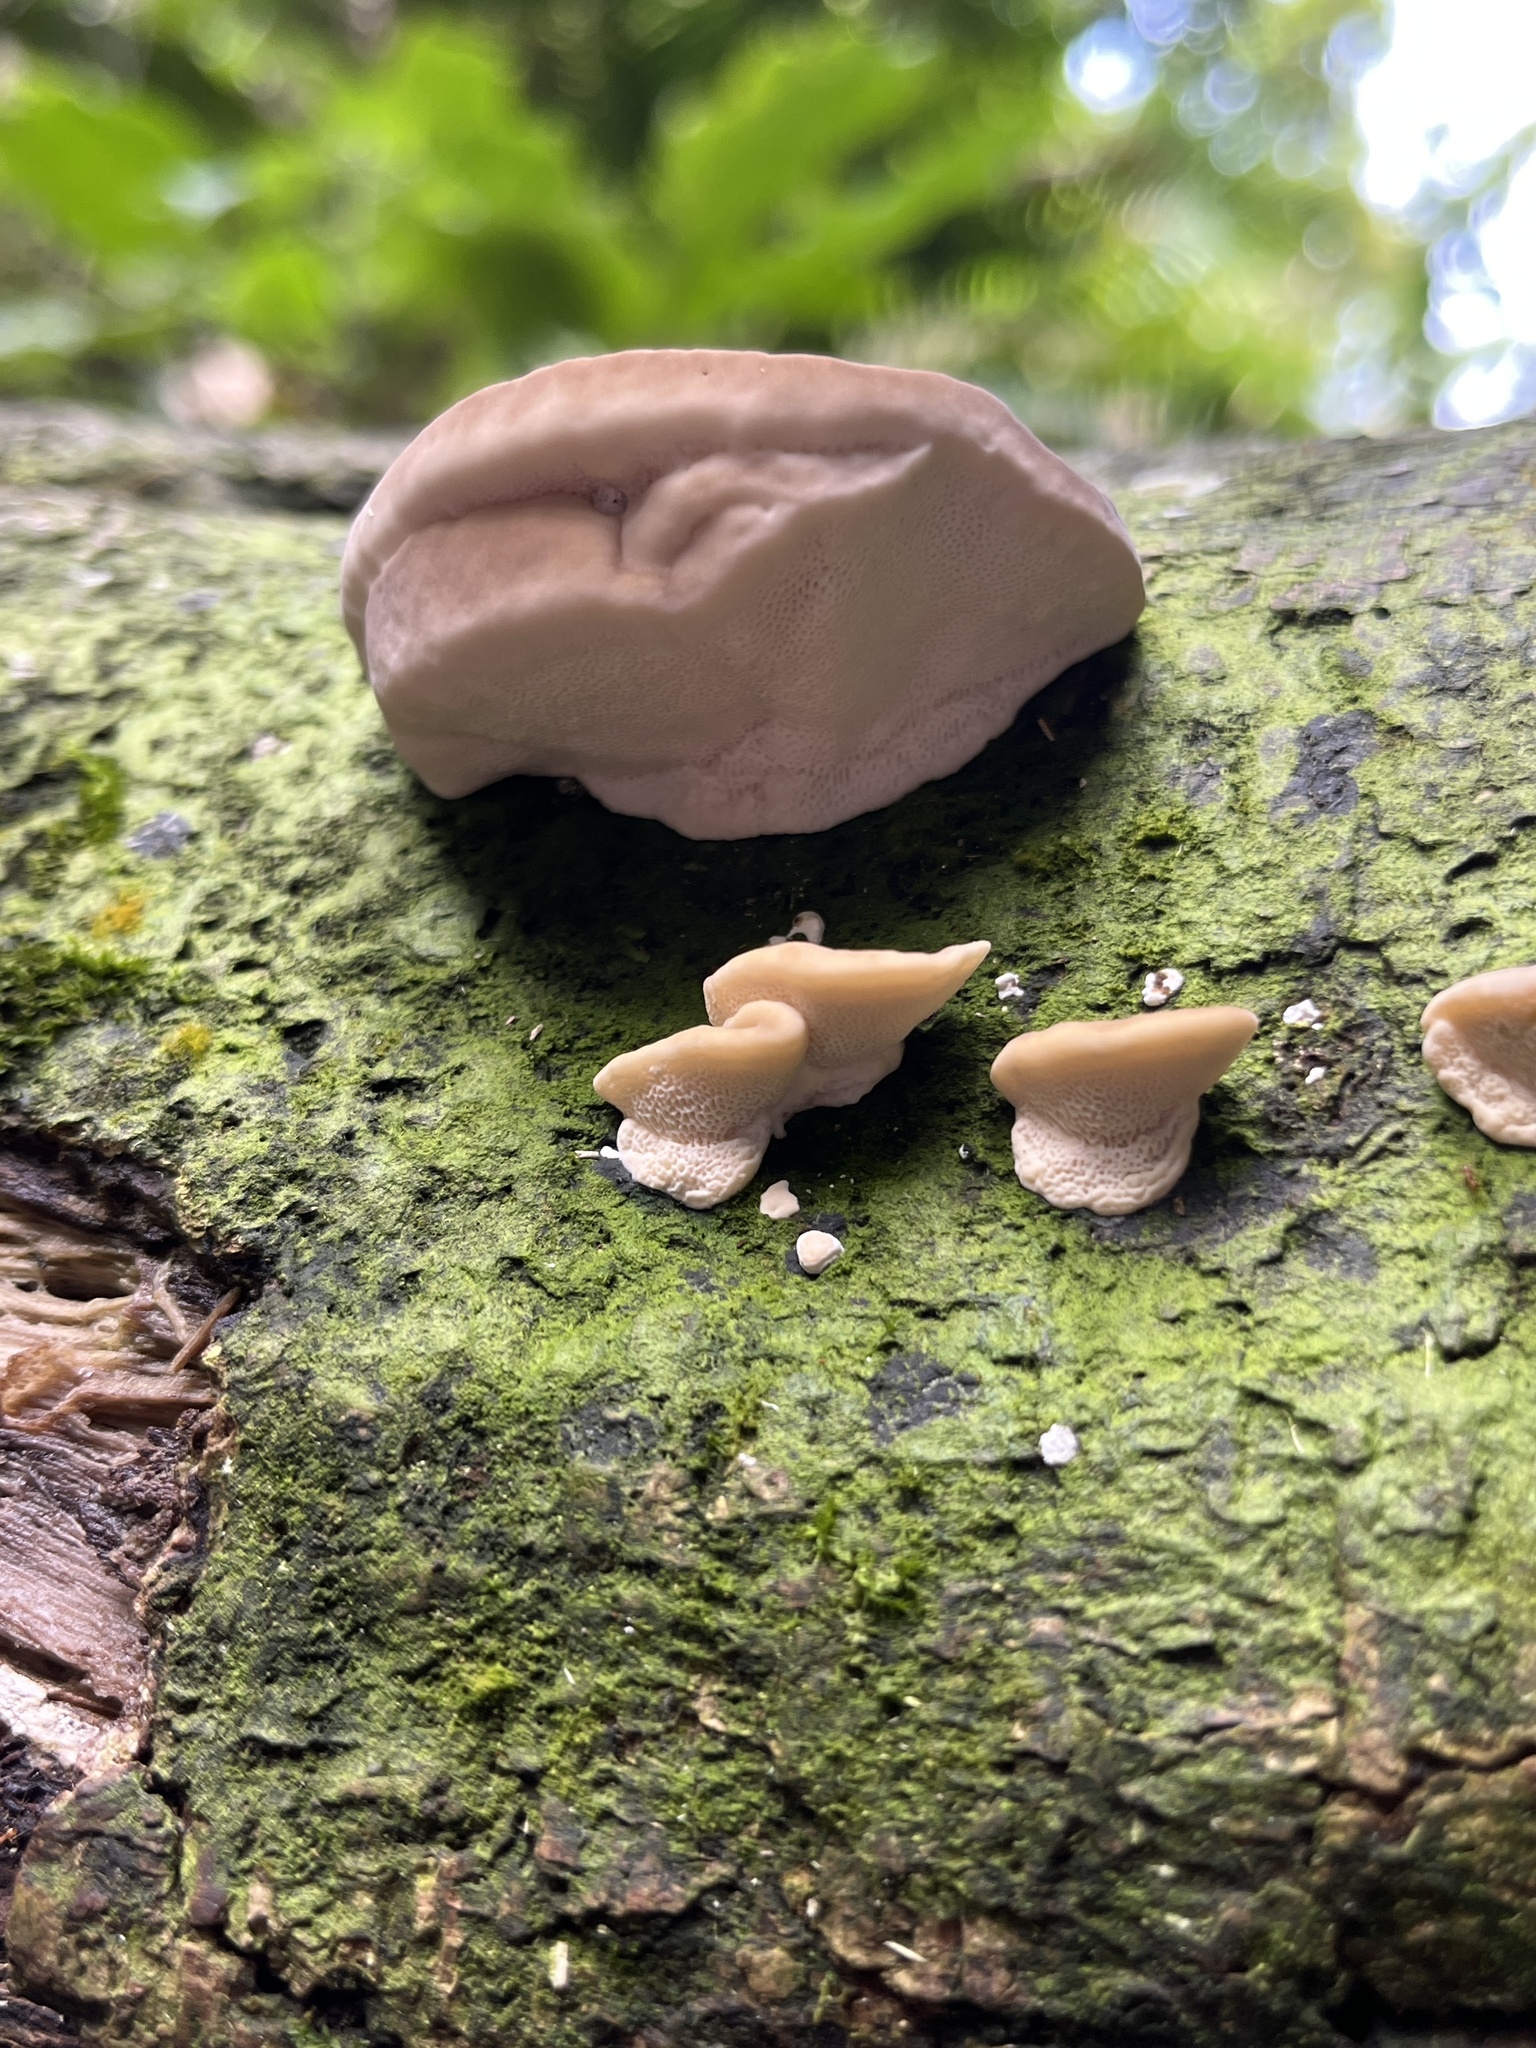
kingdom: Fungi
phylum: Basidiomycota
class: Agaricomycetes
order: Polyporales
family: Polyporaceae
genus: Trametes
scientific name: Trametes lactinea
